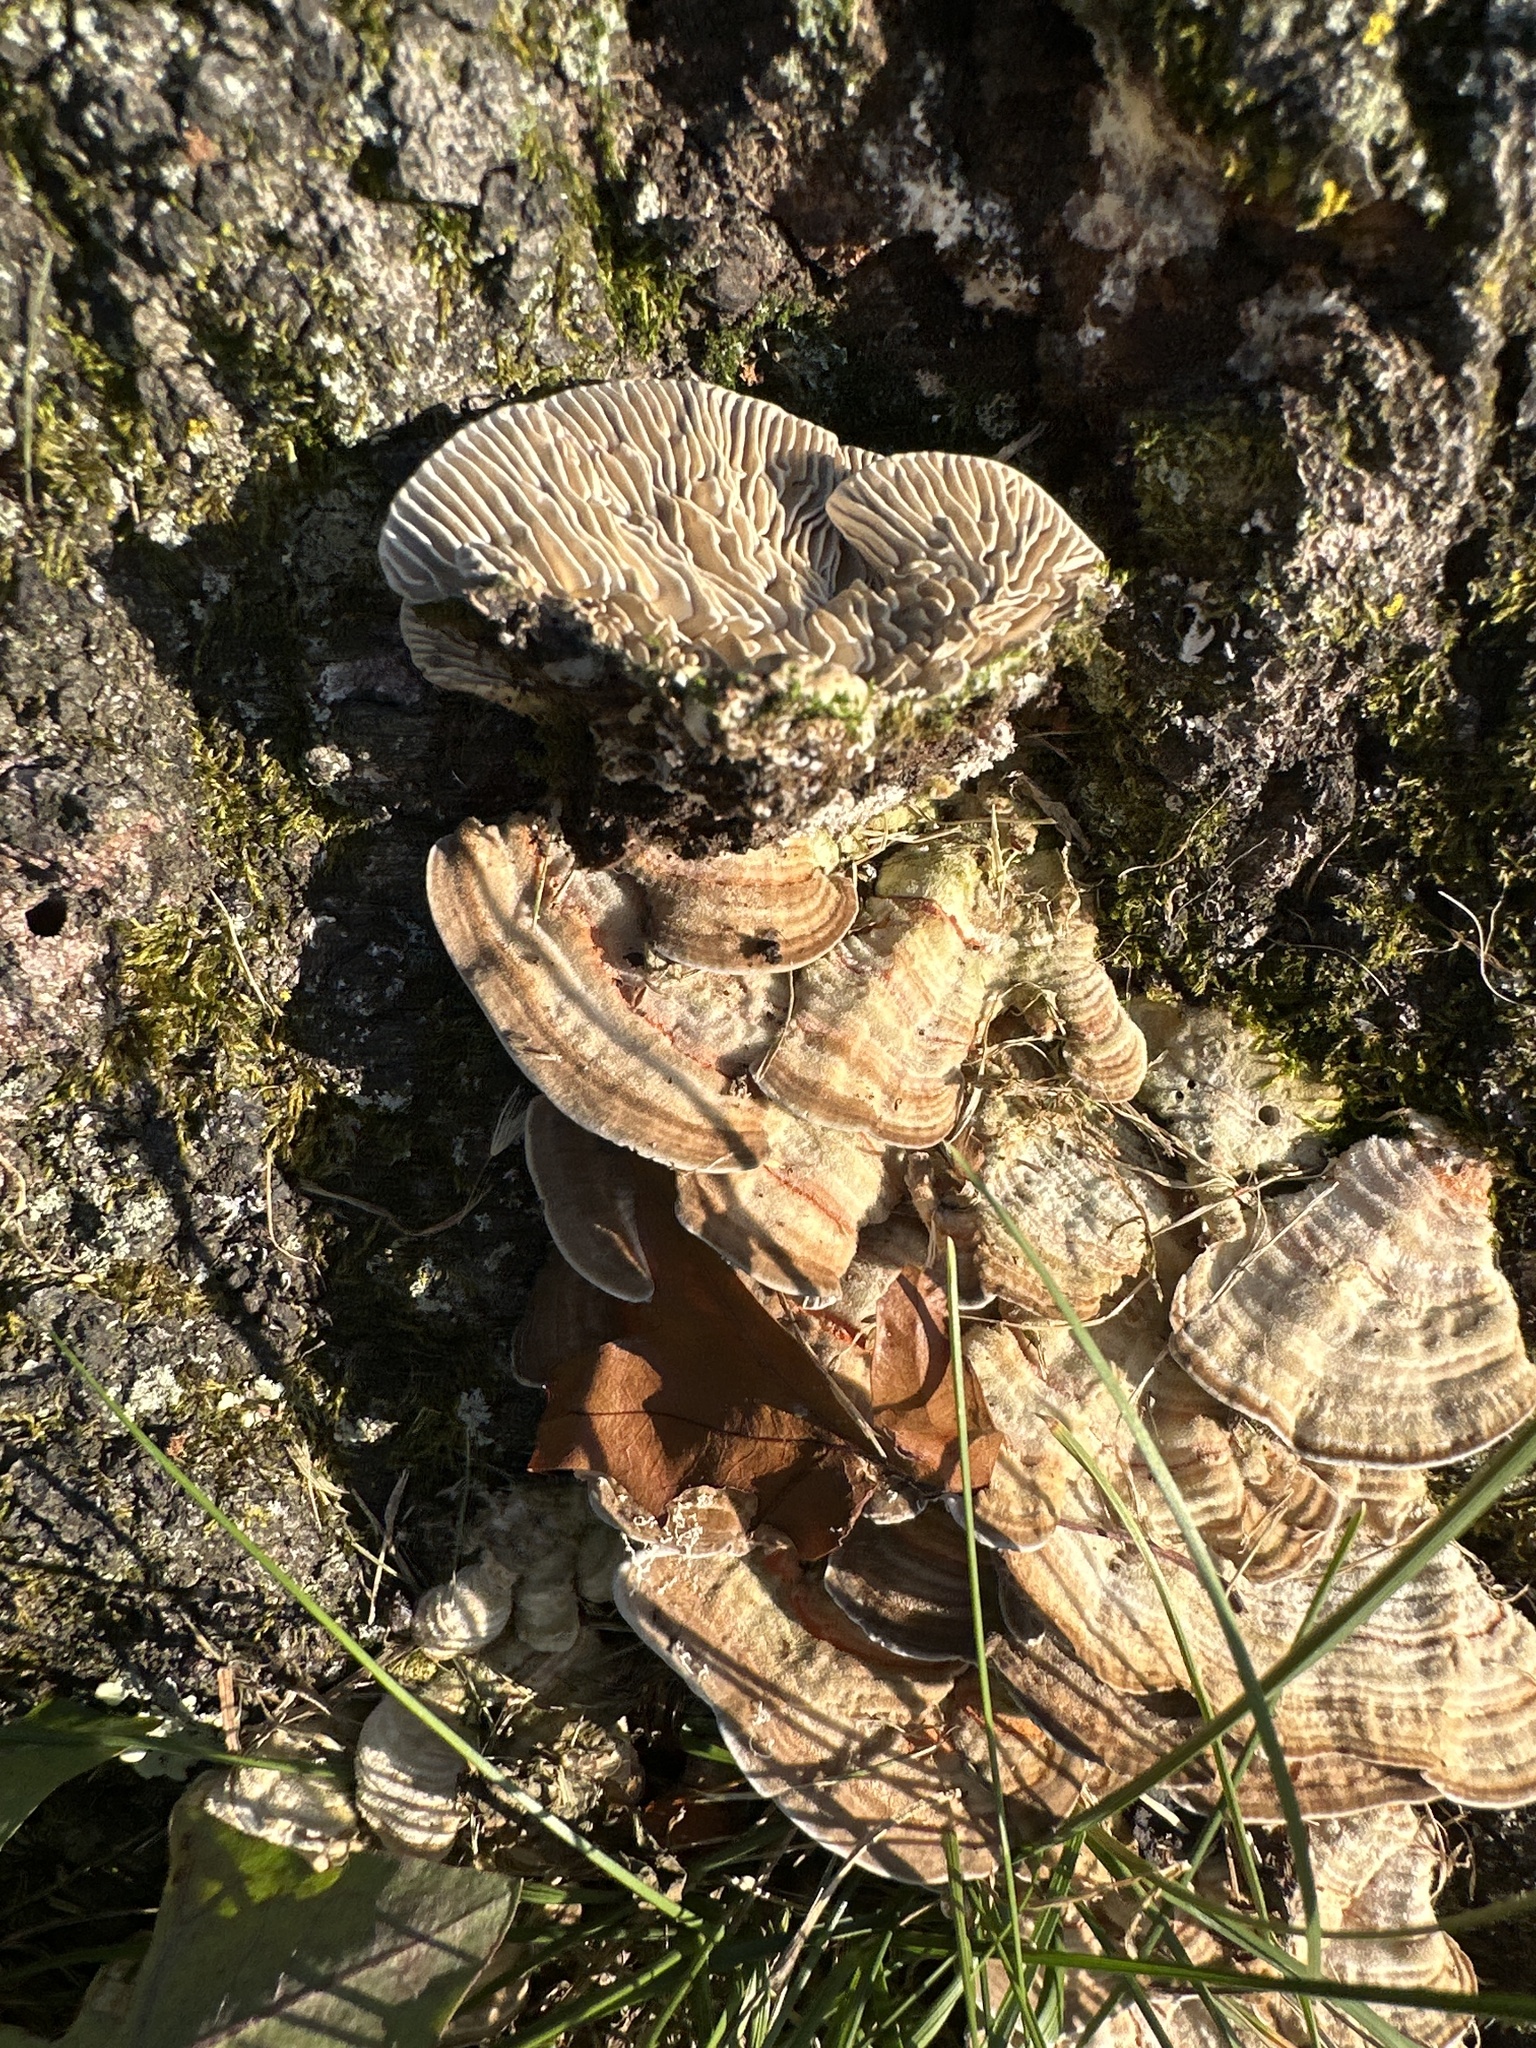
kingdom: Fungi
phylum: Basidiomycota
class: Agaricomycetes
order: Polyporales
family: Polyporaceae
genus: Lenzites
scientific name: Lenzites betulinus
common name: Birch mazegill
